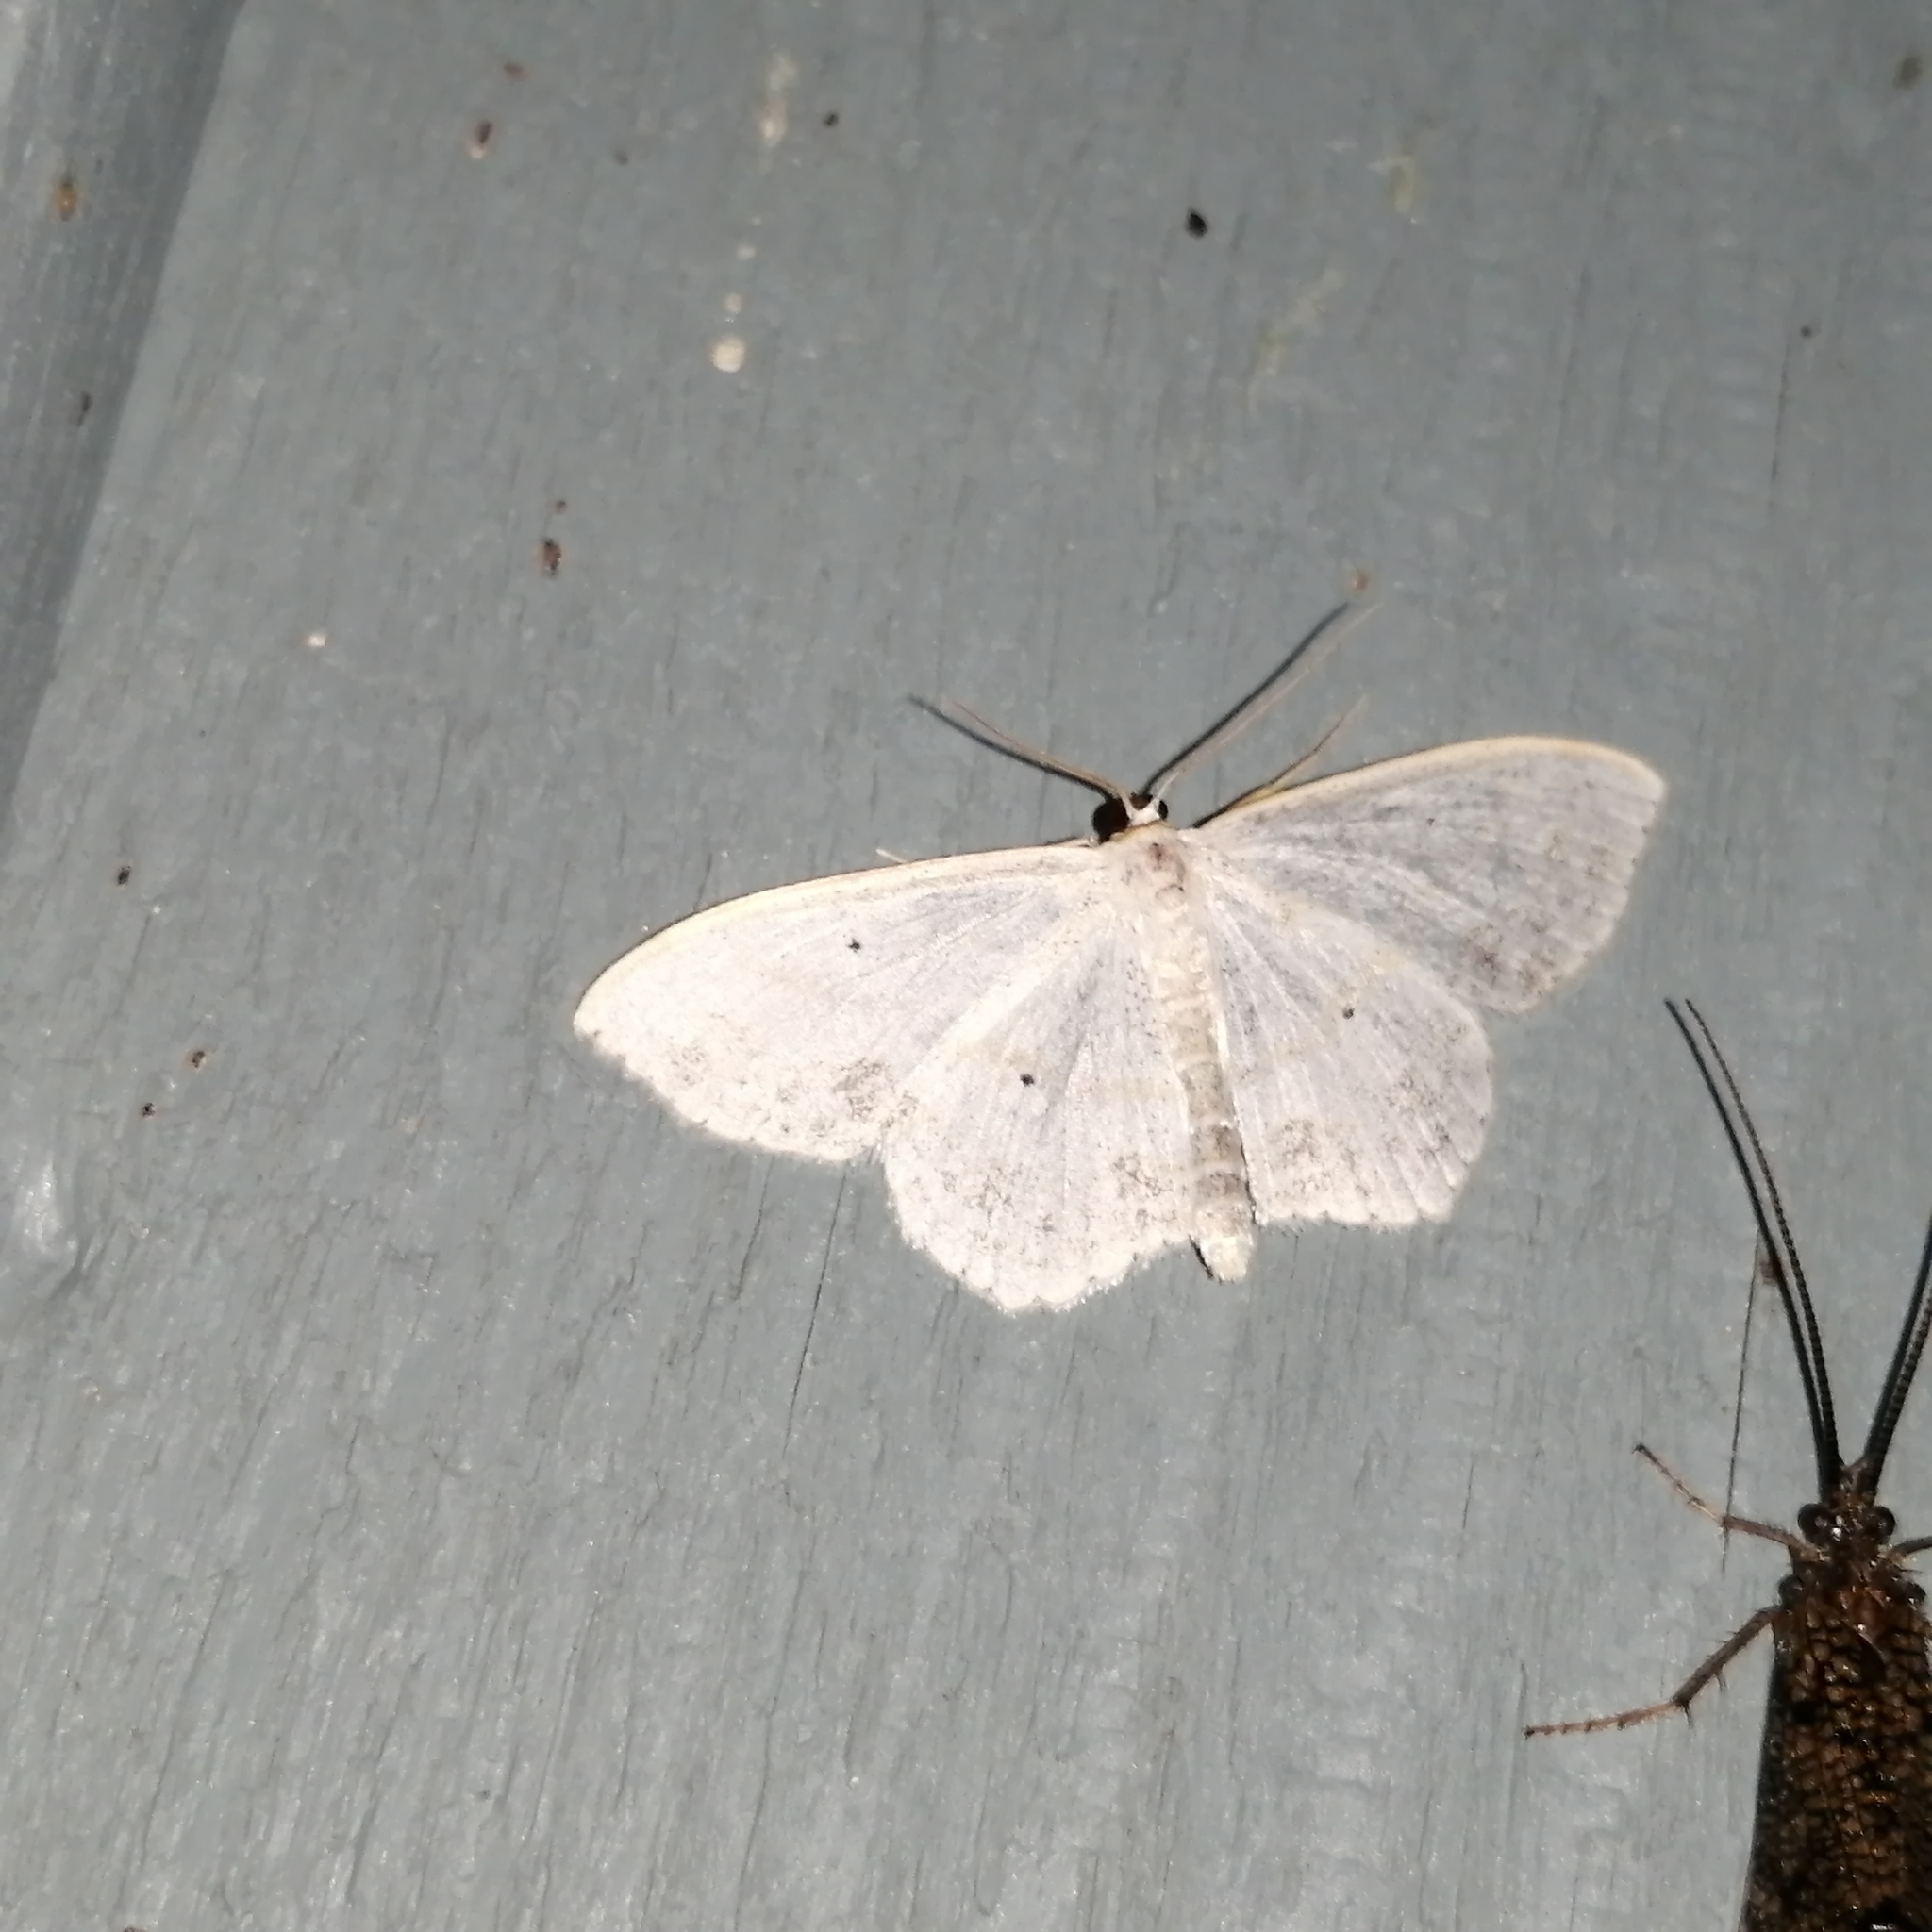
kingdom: Animalia
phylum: Arthropoda
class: Insecta
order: Lepidoptera
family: Geometridae
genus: Scopula
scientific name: Scopula limboundata
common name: Large lace border
